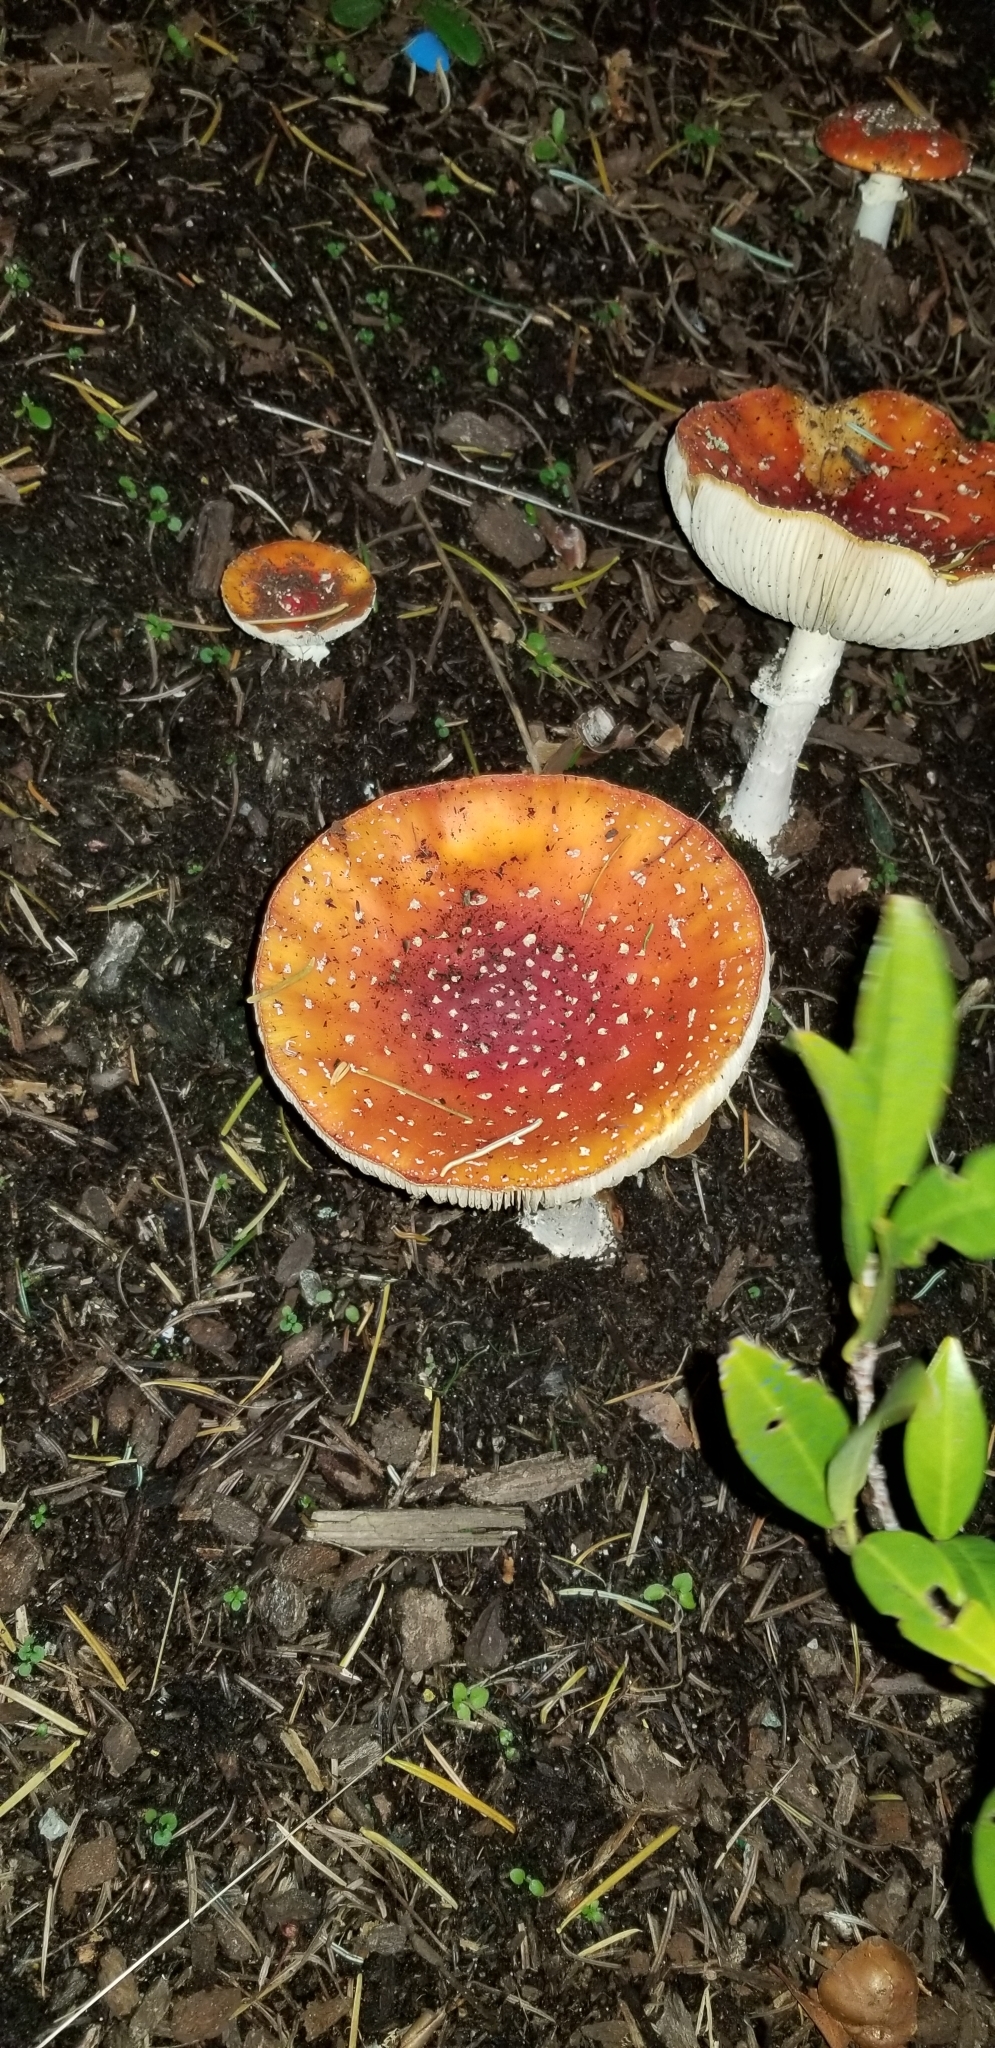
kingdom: Fungi
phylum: Basidiomycota
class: Agaricomycetes
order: Agaricales
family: Amanitaceae
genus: Amanita
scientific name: Amanita muscaria
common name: Fly agaric
